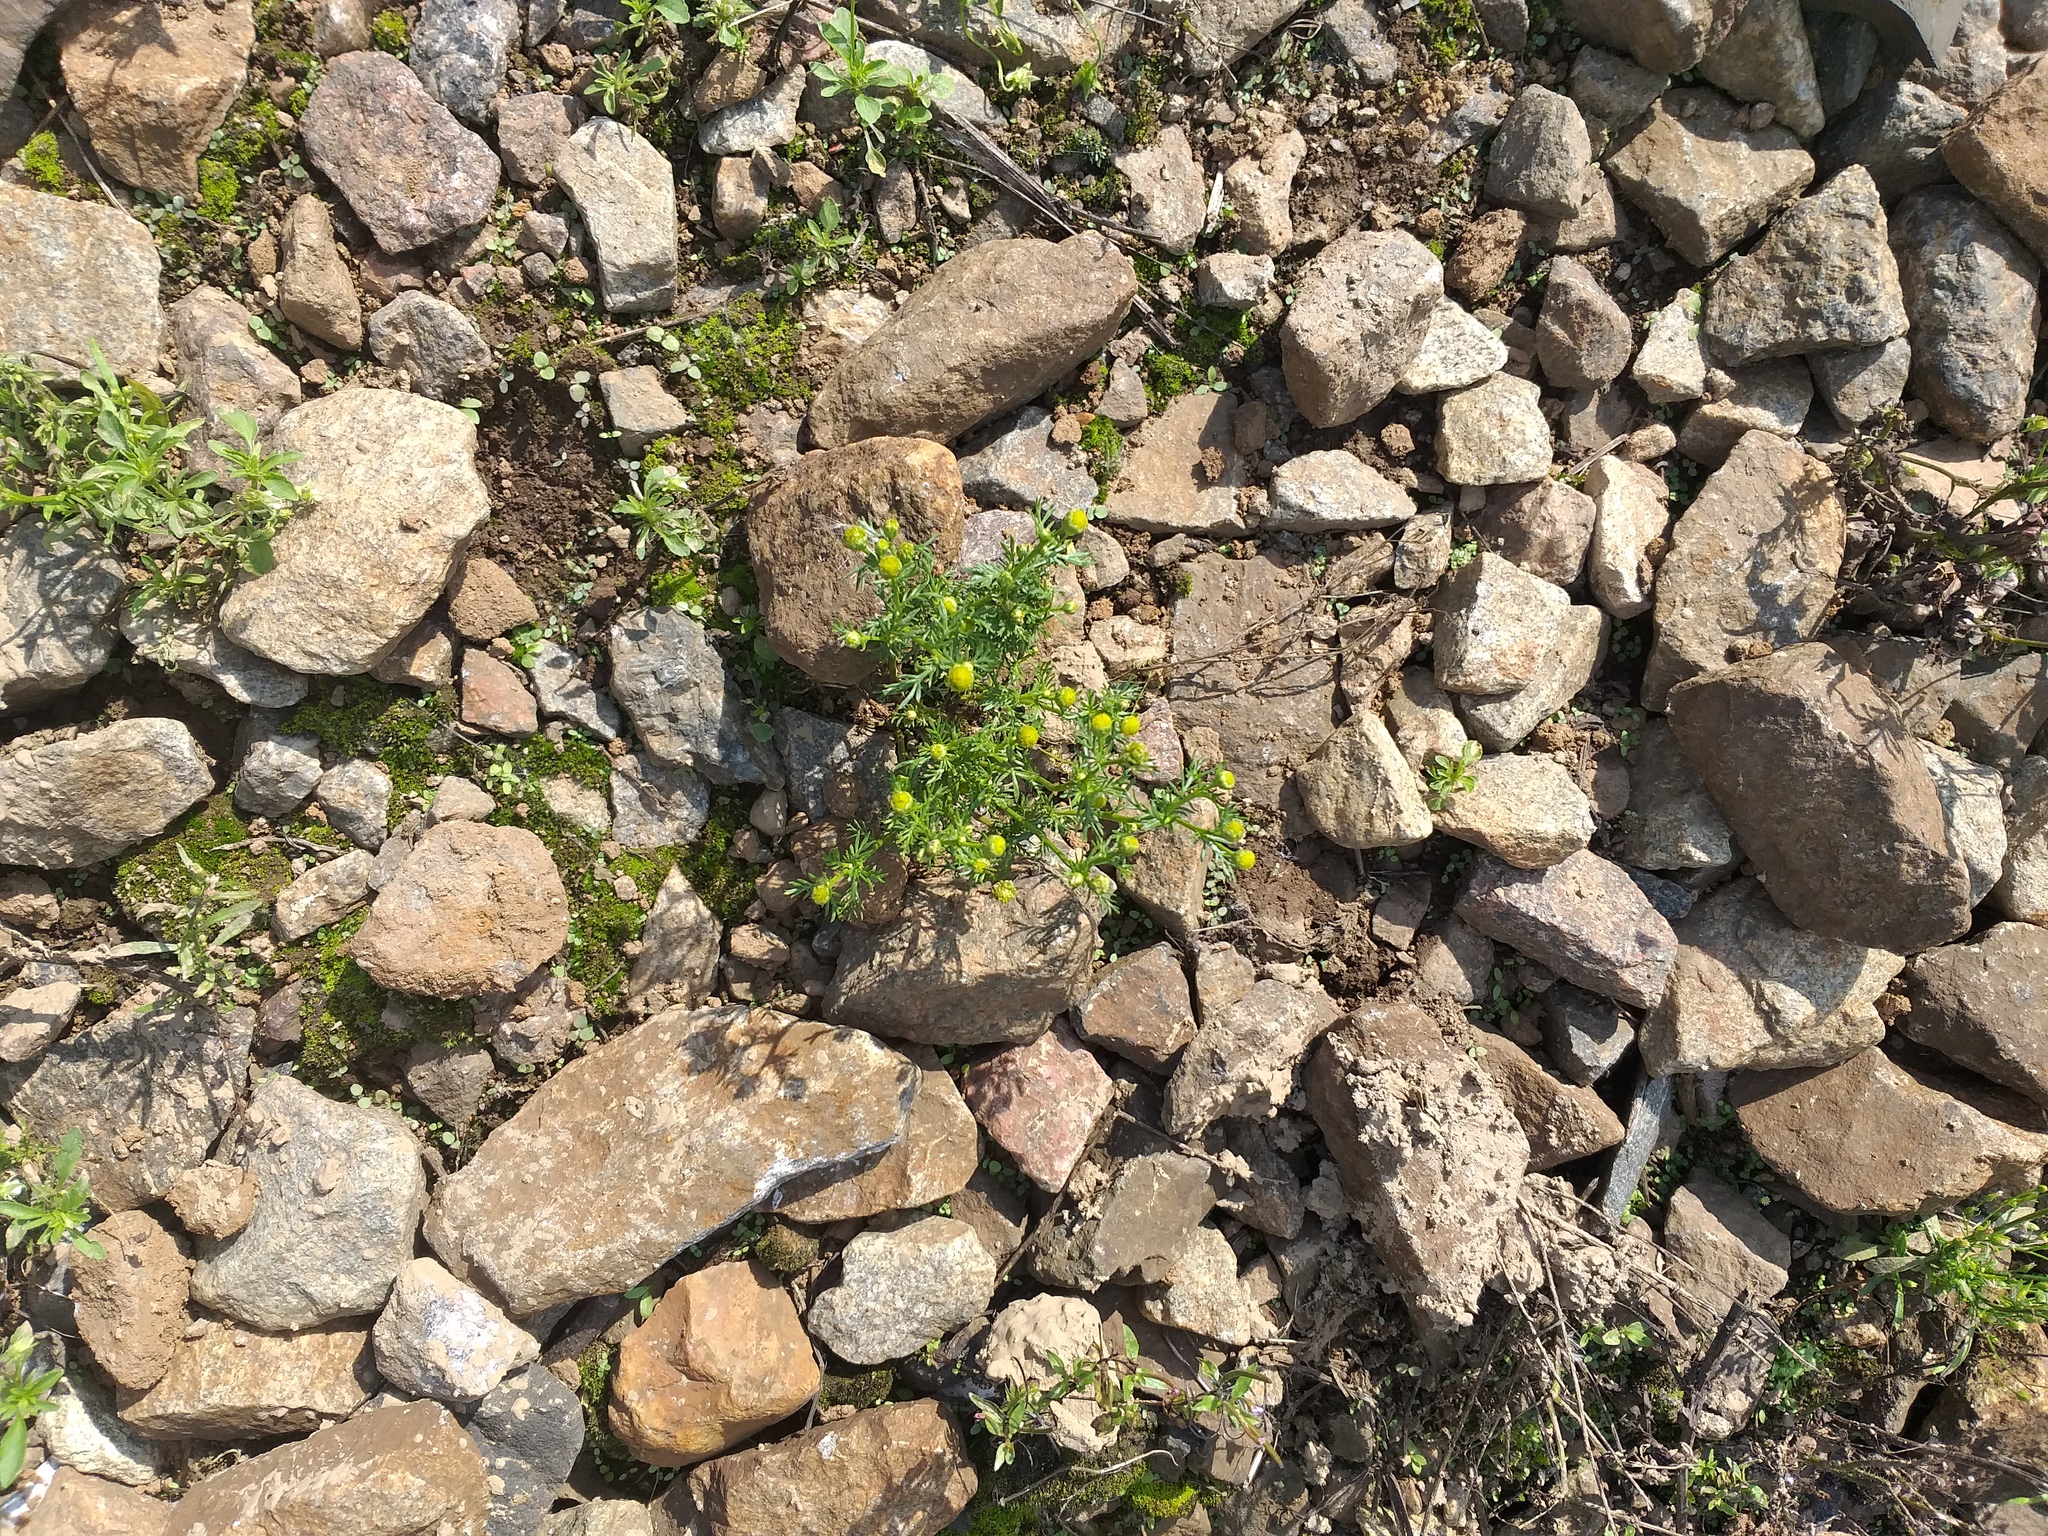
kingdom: Plantae
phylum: Tracheophyta
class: Magnoliopsida
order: Asterales
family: Asteraceae
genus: Matricaria
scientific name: Matricaria discoidea
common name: Disc mayweed
